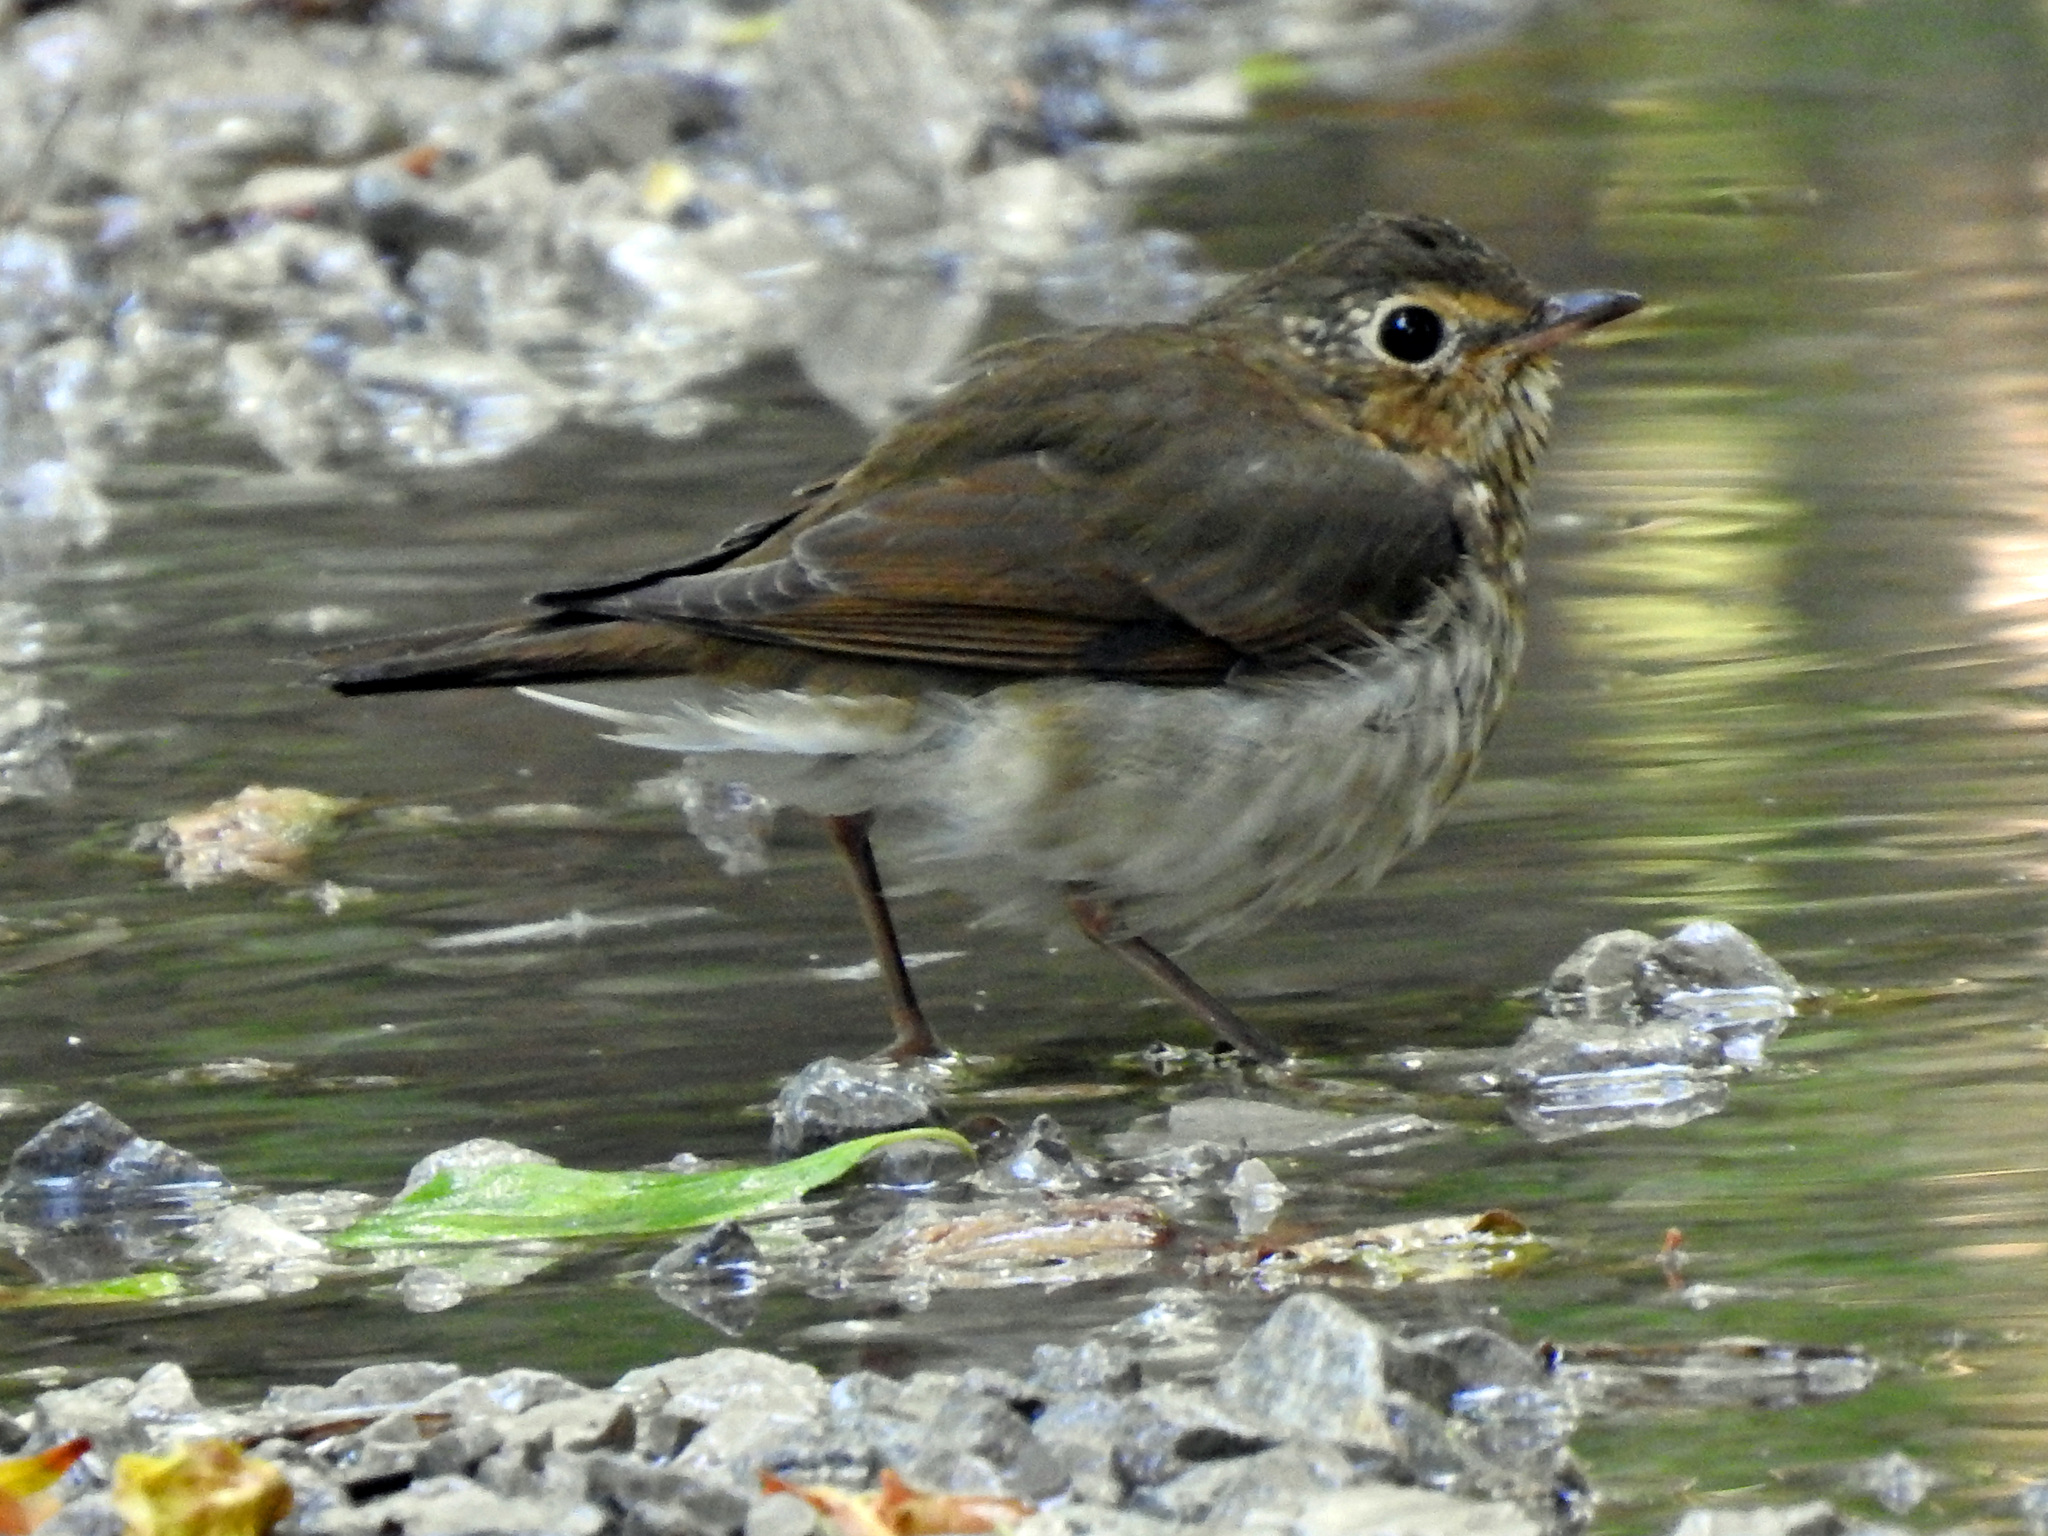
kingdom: Animalia
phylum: Chordata
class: Aves
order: Passeriformes
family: Turdidae
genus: Catharus
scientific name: Catharus ustulatus
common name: Swainson's thrush
